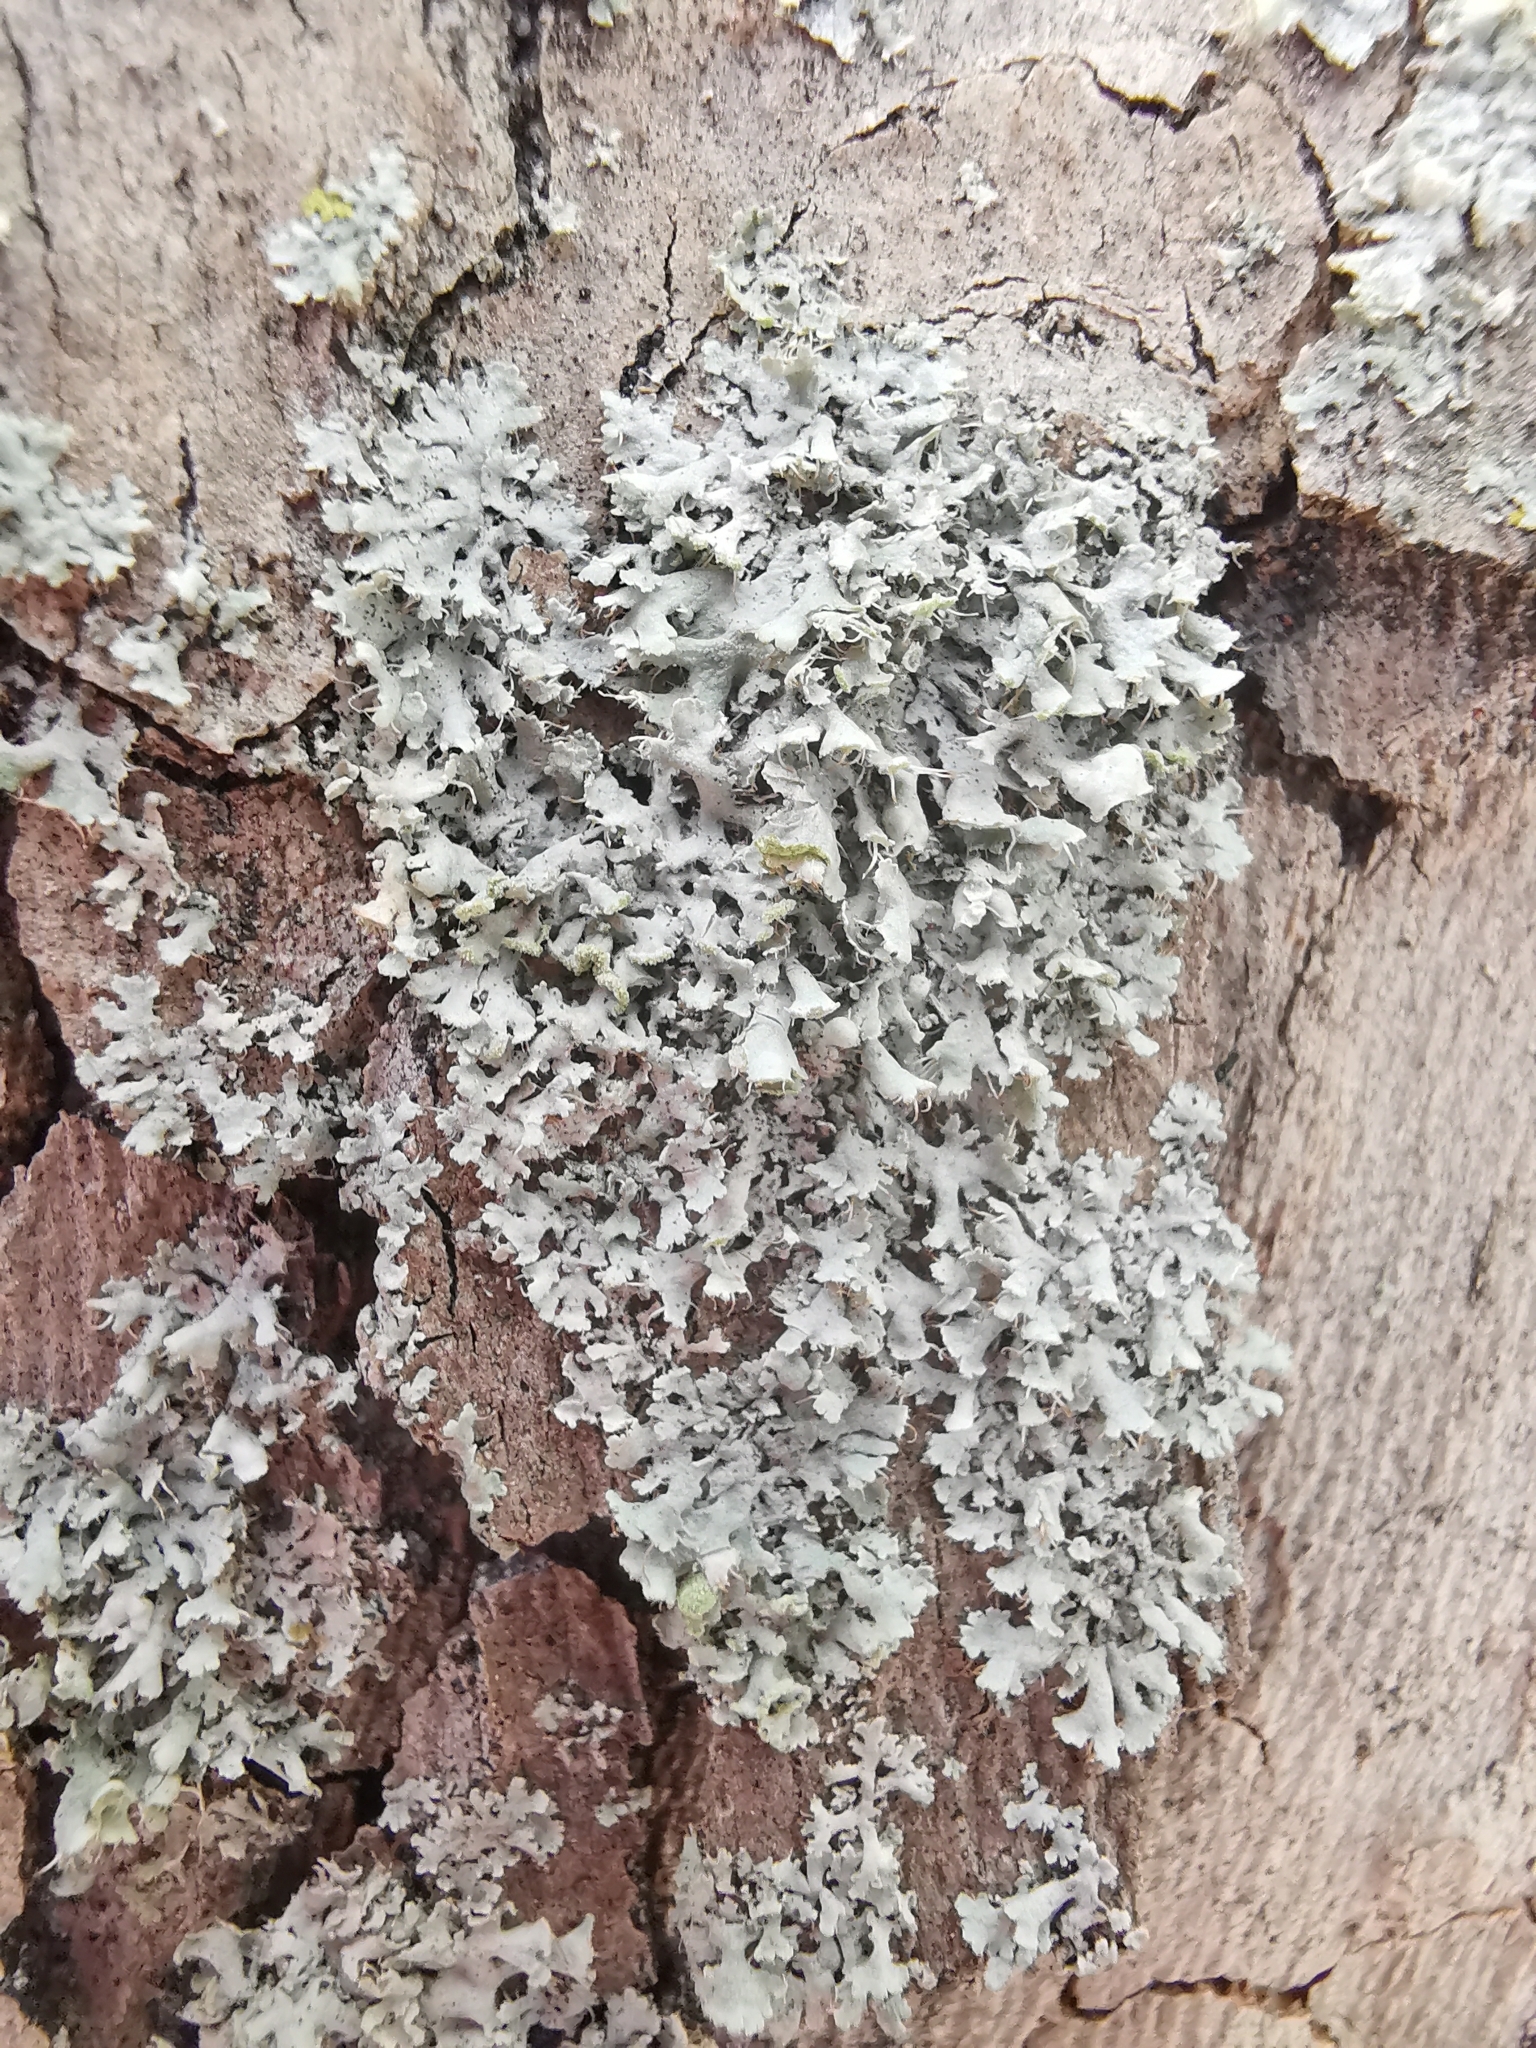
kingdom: Fungi
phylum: Ascomycota
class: Lecanoromycetes
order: Caliciales
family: Physciaceae
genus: Physcia
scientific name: Physcia adscendens
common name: Hooded rosette lichen
